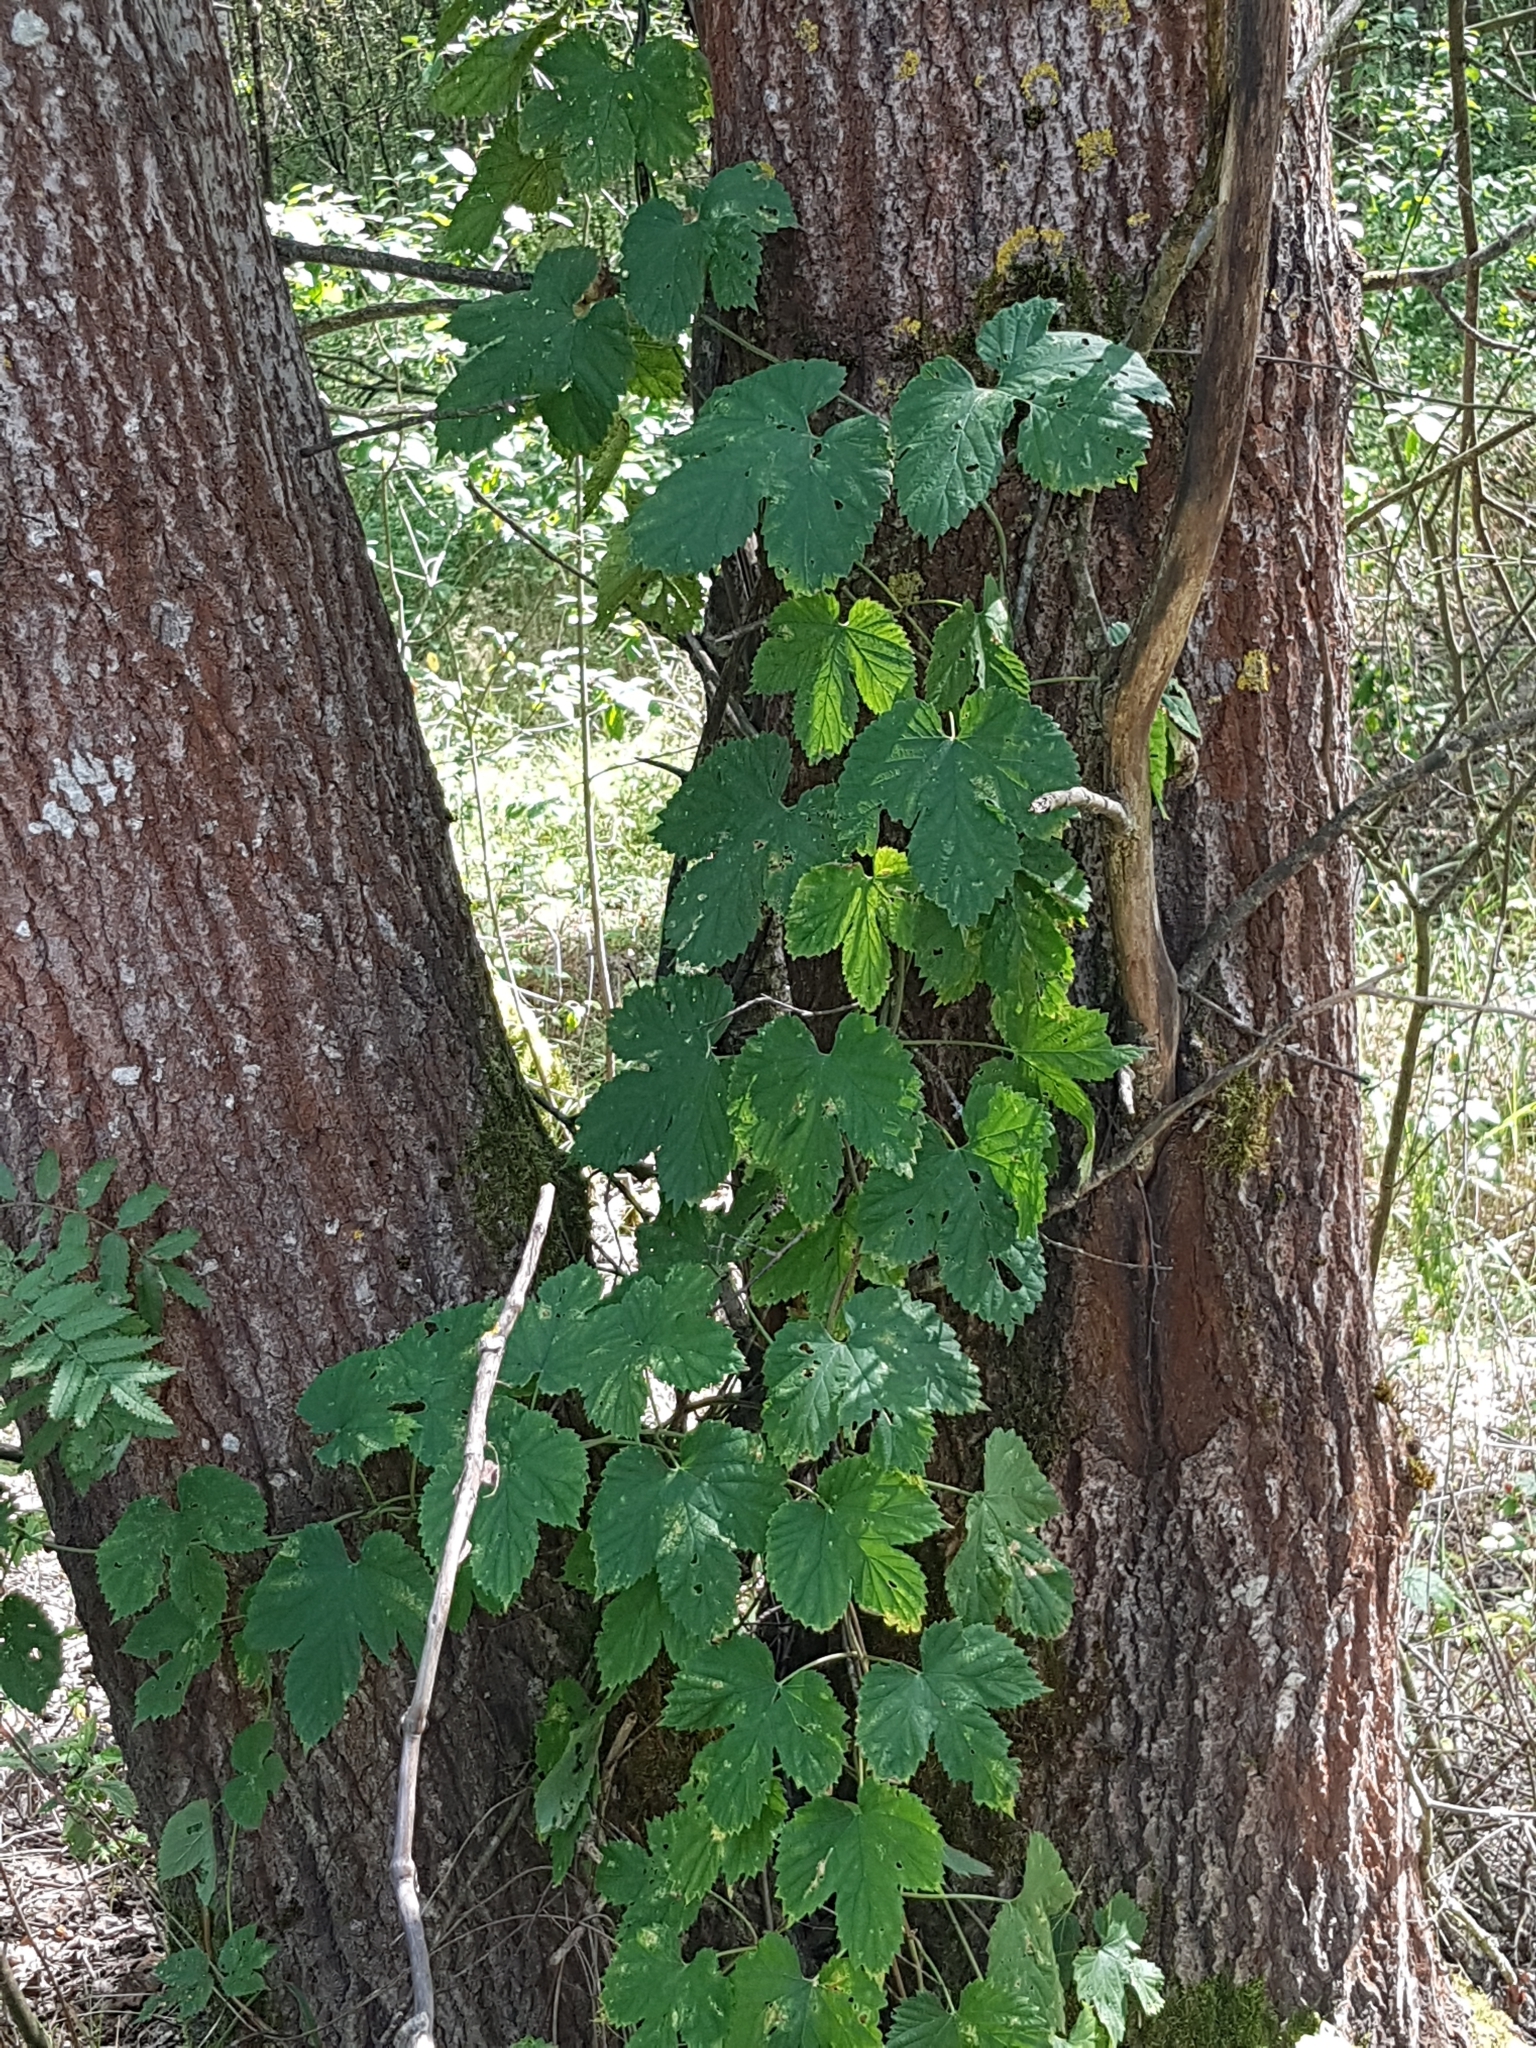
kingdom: Plantae
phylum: Tracheophyta
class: Magnoliopsida
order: Rosales
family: Cannabaceae
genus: Humulus
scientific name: Humulus lupulus
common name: Hop
